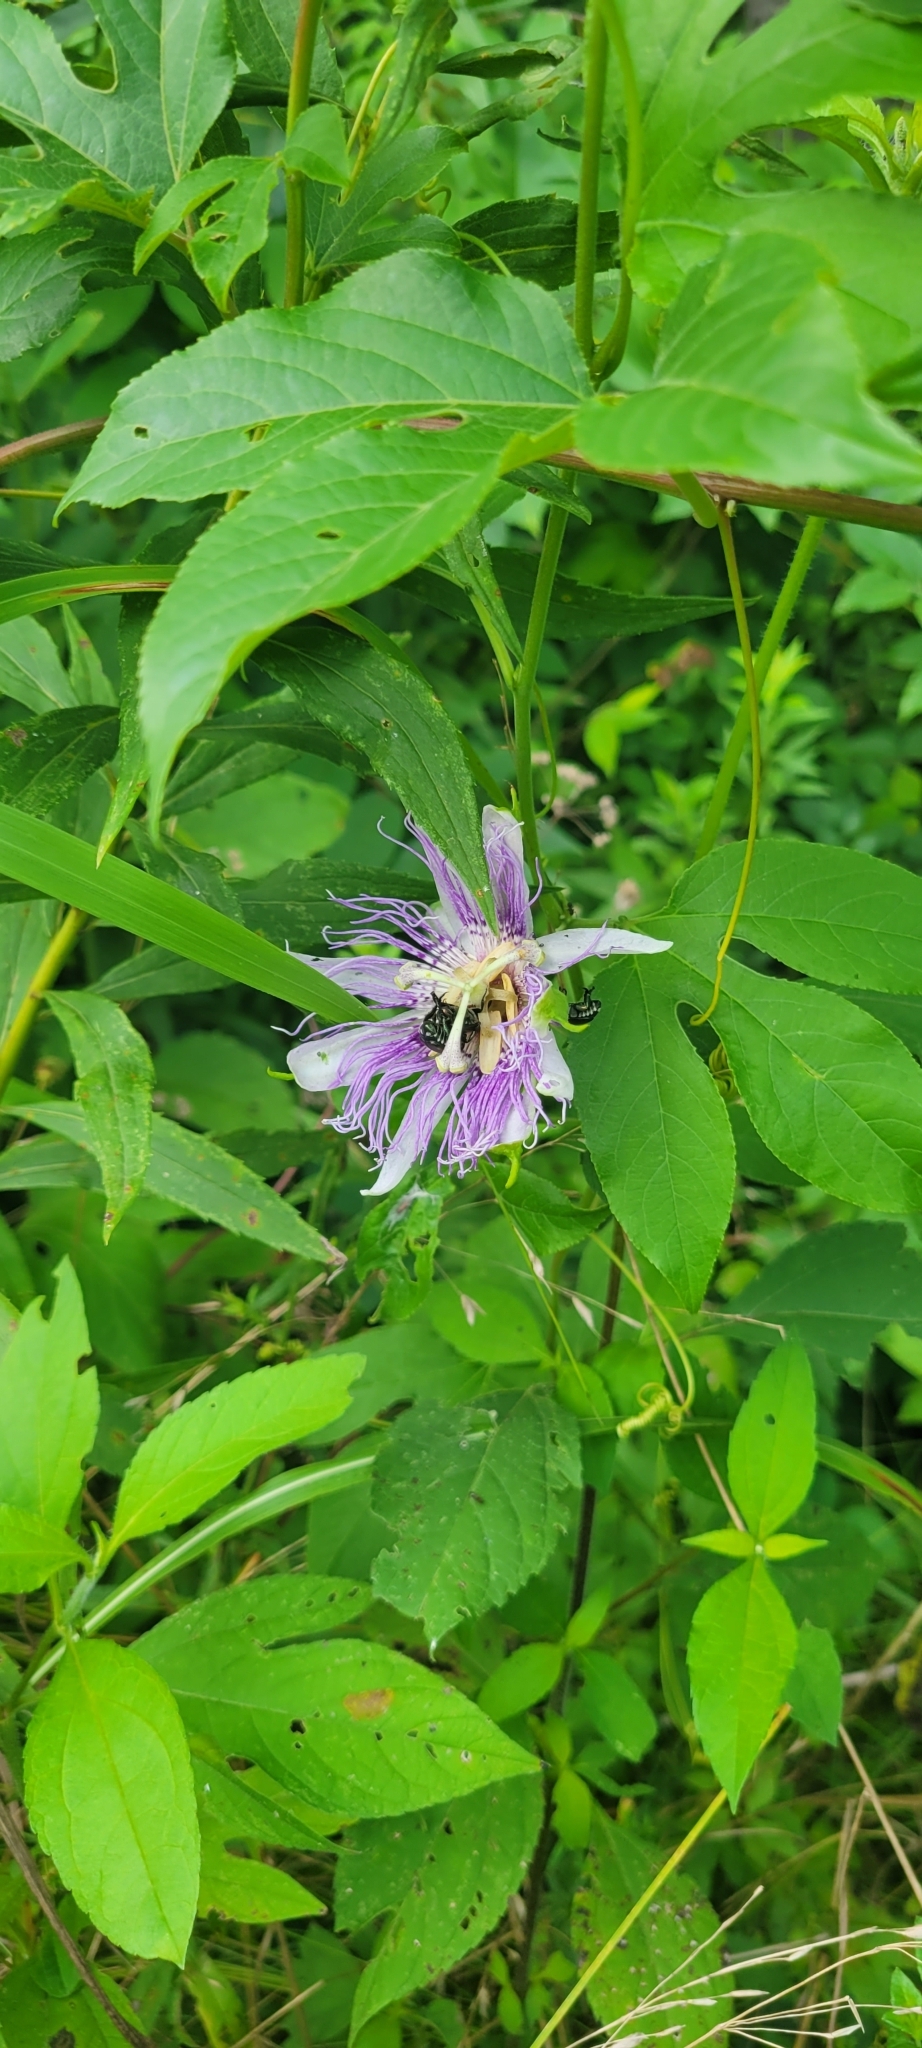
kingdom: Plantae
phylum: Tracheophyta
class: Magnoliopsida
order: Malpighiales
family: Passifloraceae
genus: Passiflora
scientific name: Passiflora incarnata
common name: Apricot-vine
